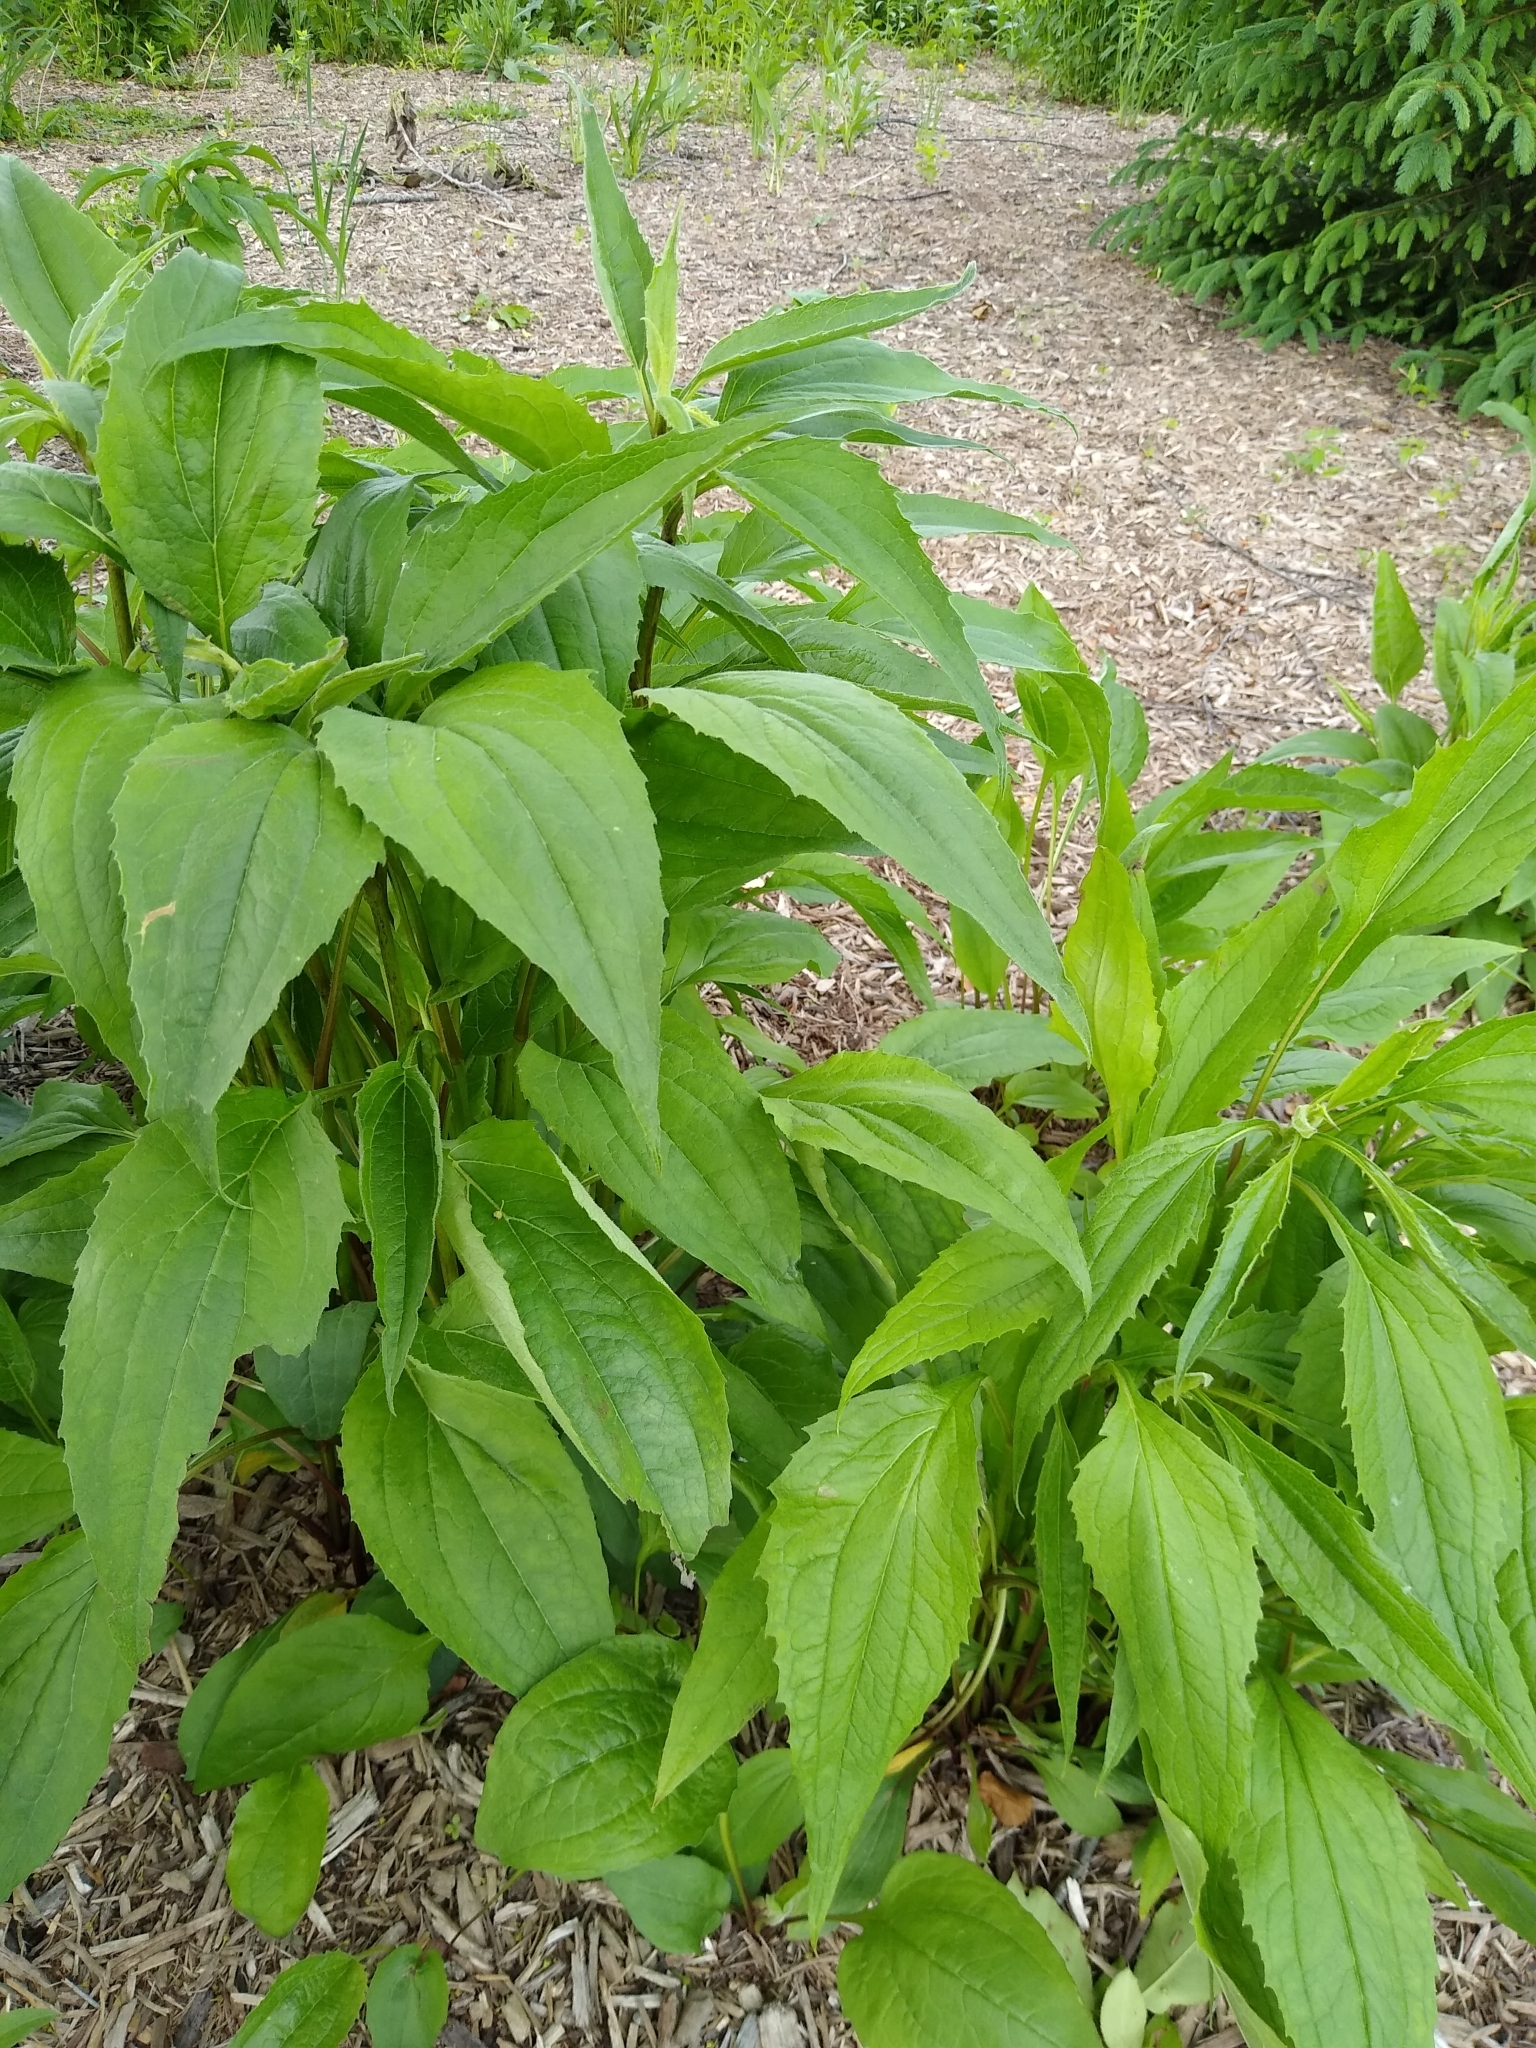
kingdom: Plantae
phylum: Tracheophyta
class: Magnoliopsida
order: Asterales
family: Asteraceae
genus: Echinacea
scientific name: Echinacea purpurea
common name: Broad-leaved purple coneflower
